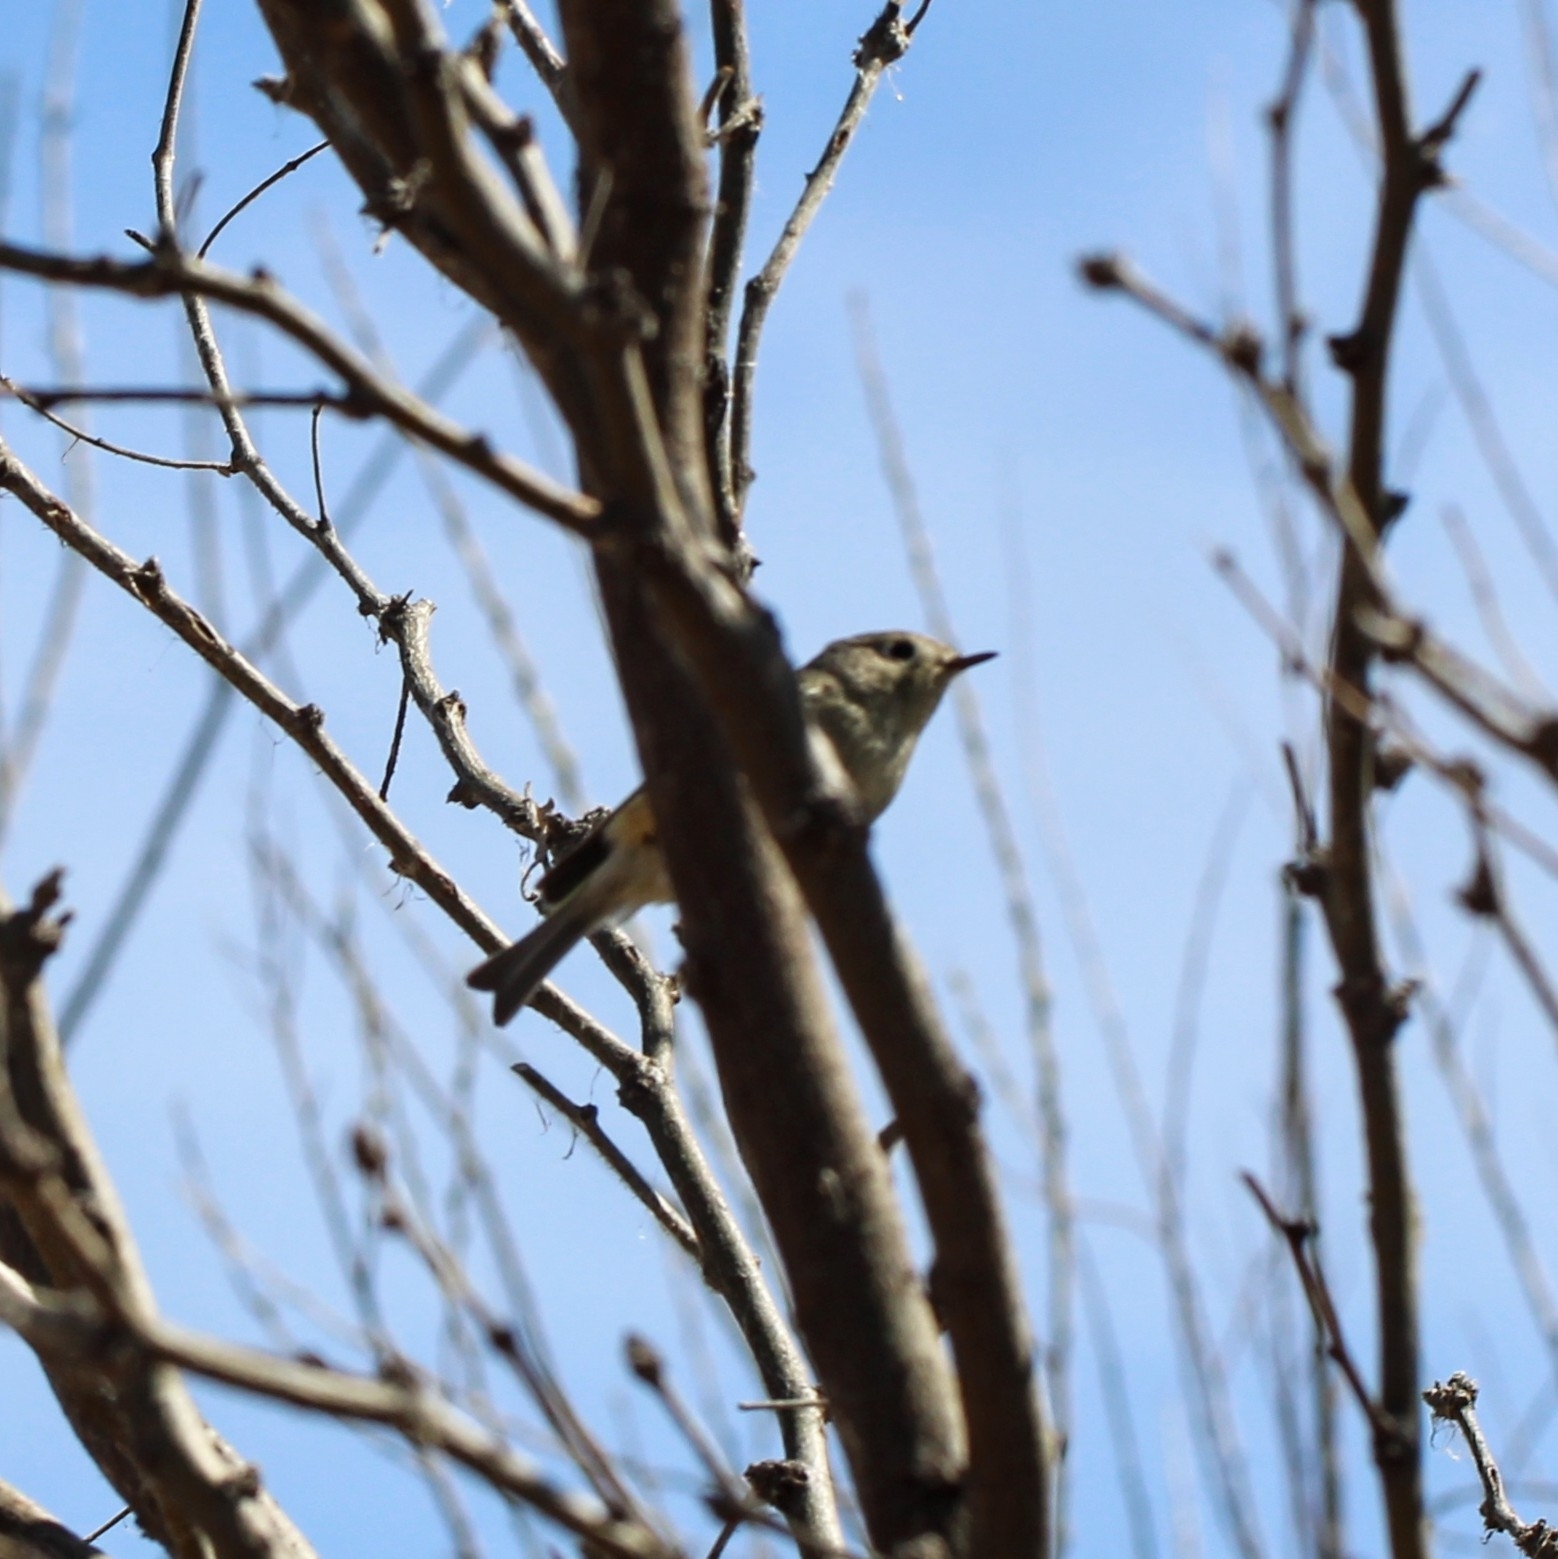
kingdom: Animalia
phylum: Chordata
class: Aves
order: Passeriformes
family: Regulidae
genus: Regulus
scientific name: Regulus calendula
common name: Ruby-crowned kinglet
